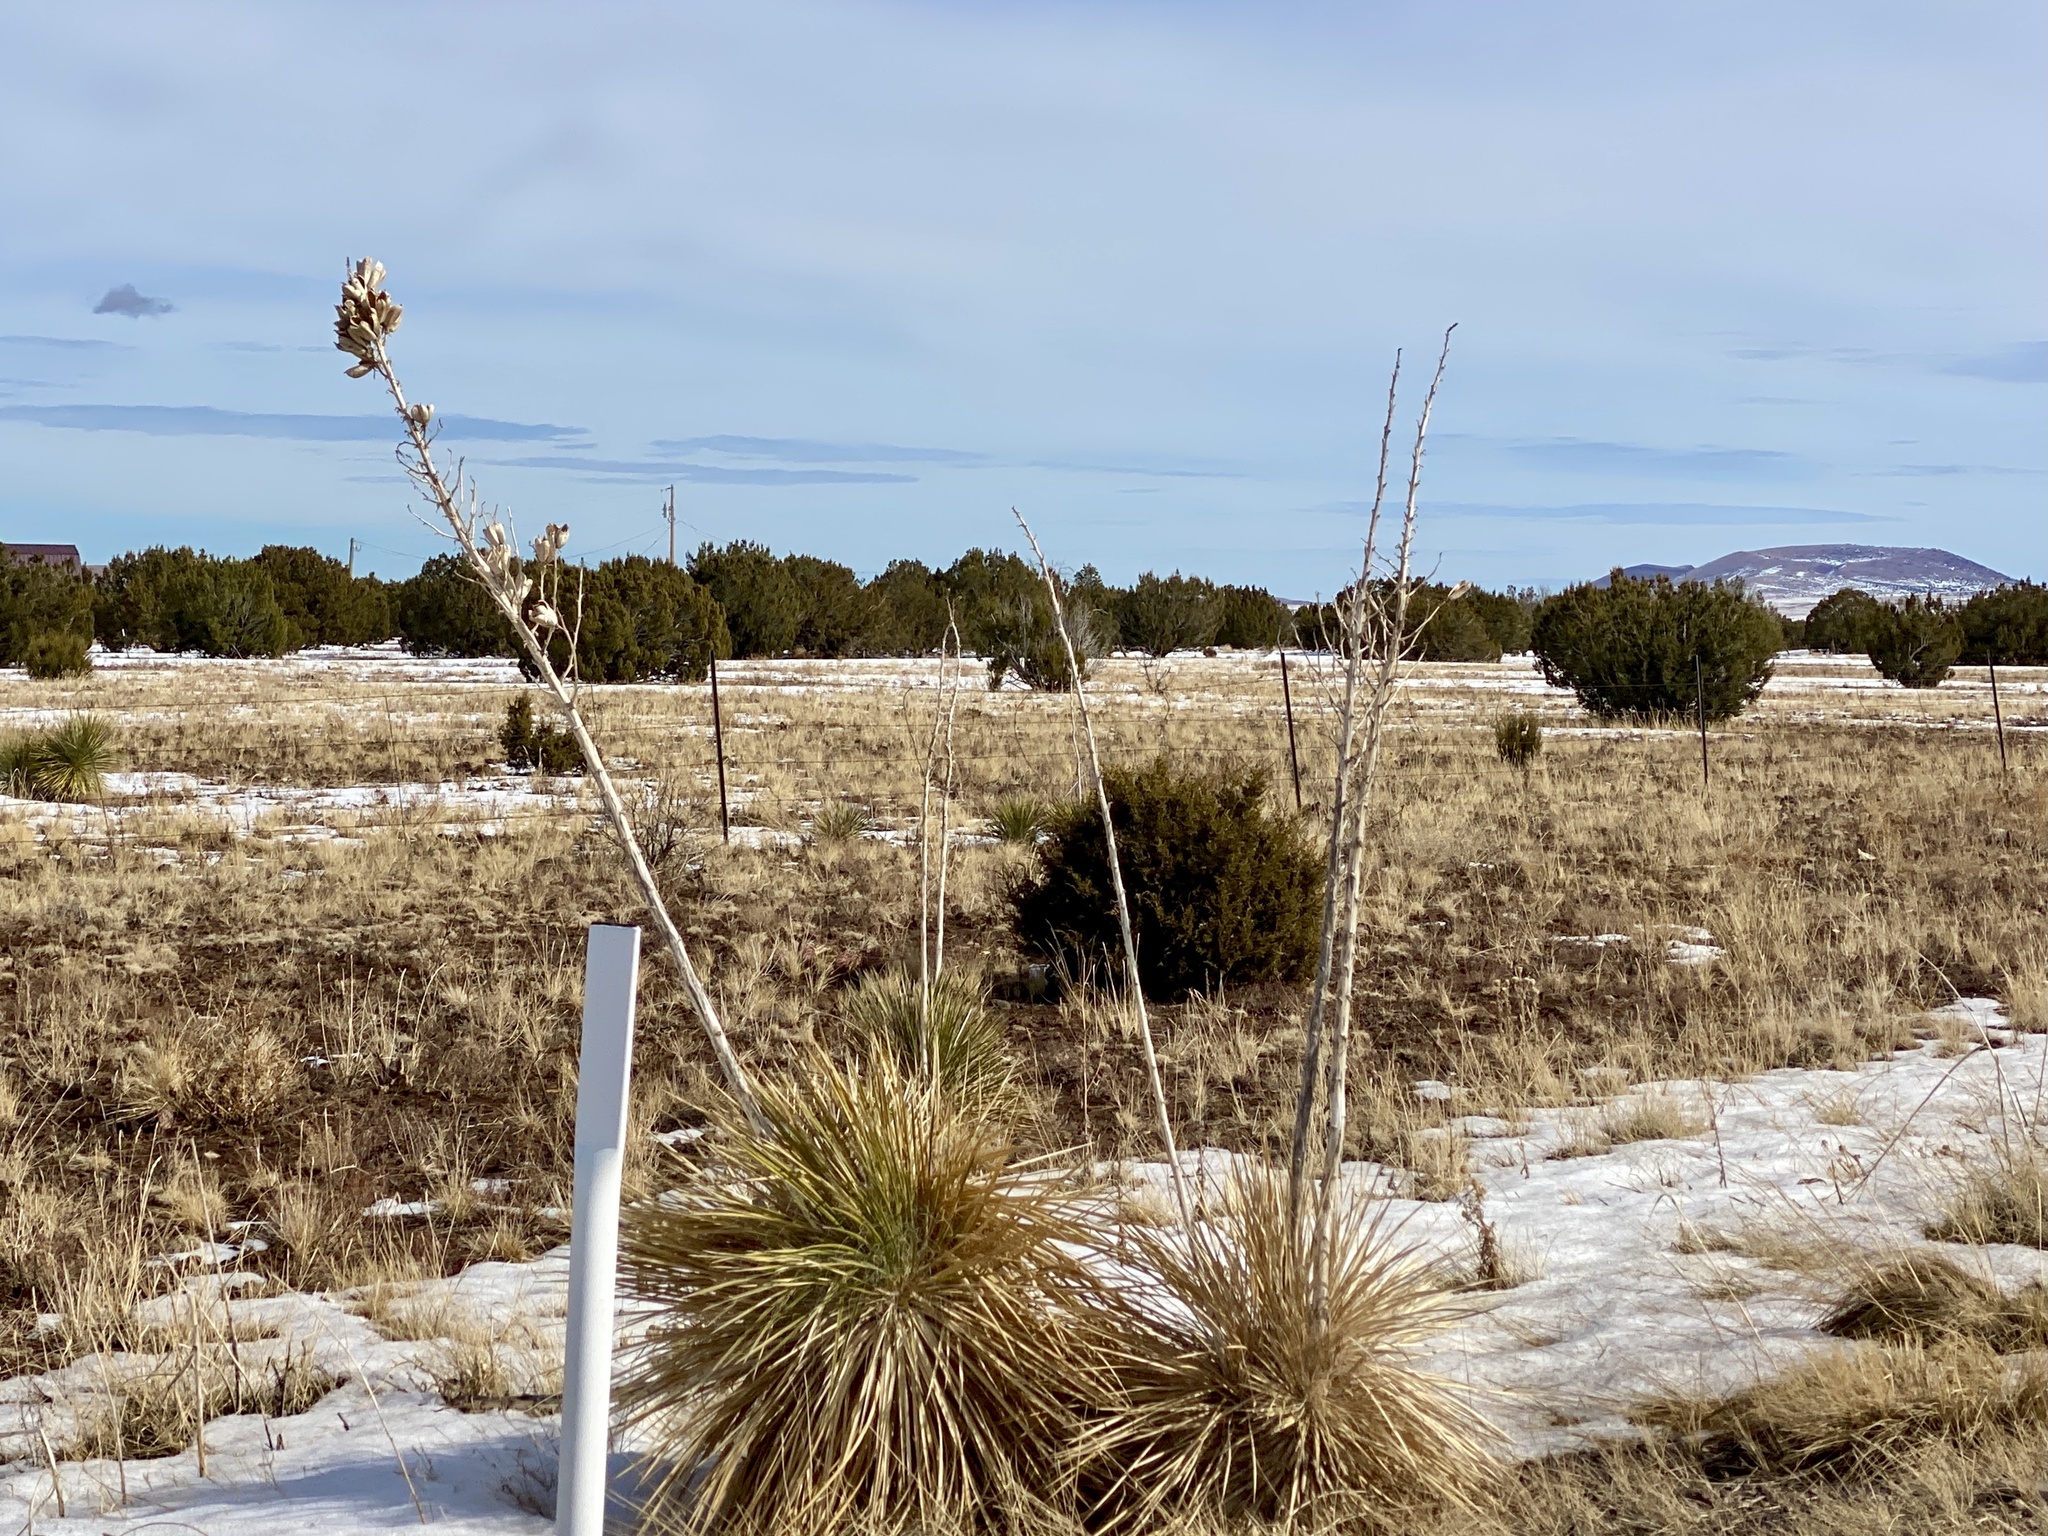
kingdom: Plantae
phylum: Tracheophyta
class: Liliopsida
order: Asparagales
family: Asparagaceae
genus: Yucca
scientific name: Yucca elata
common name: Palmella
